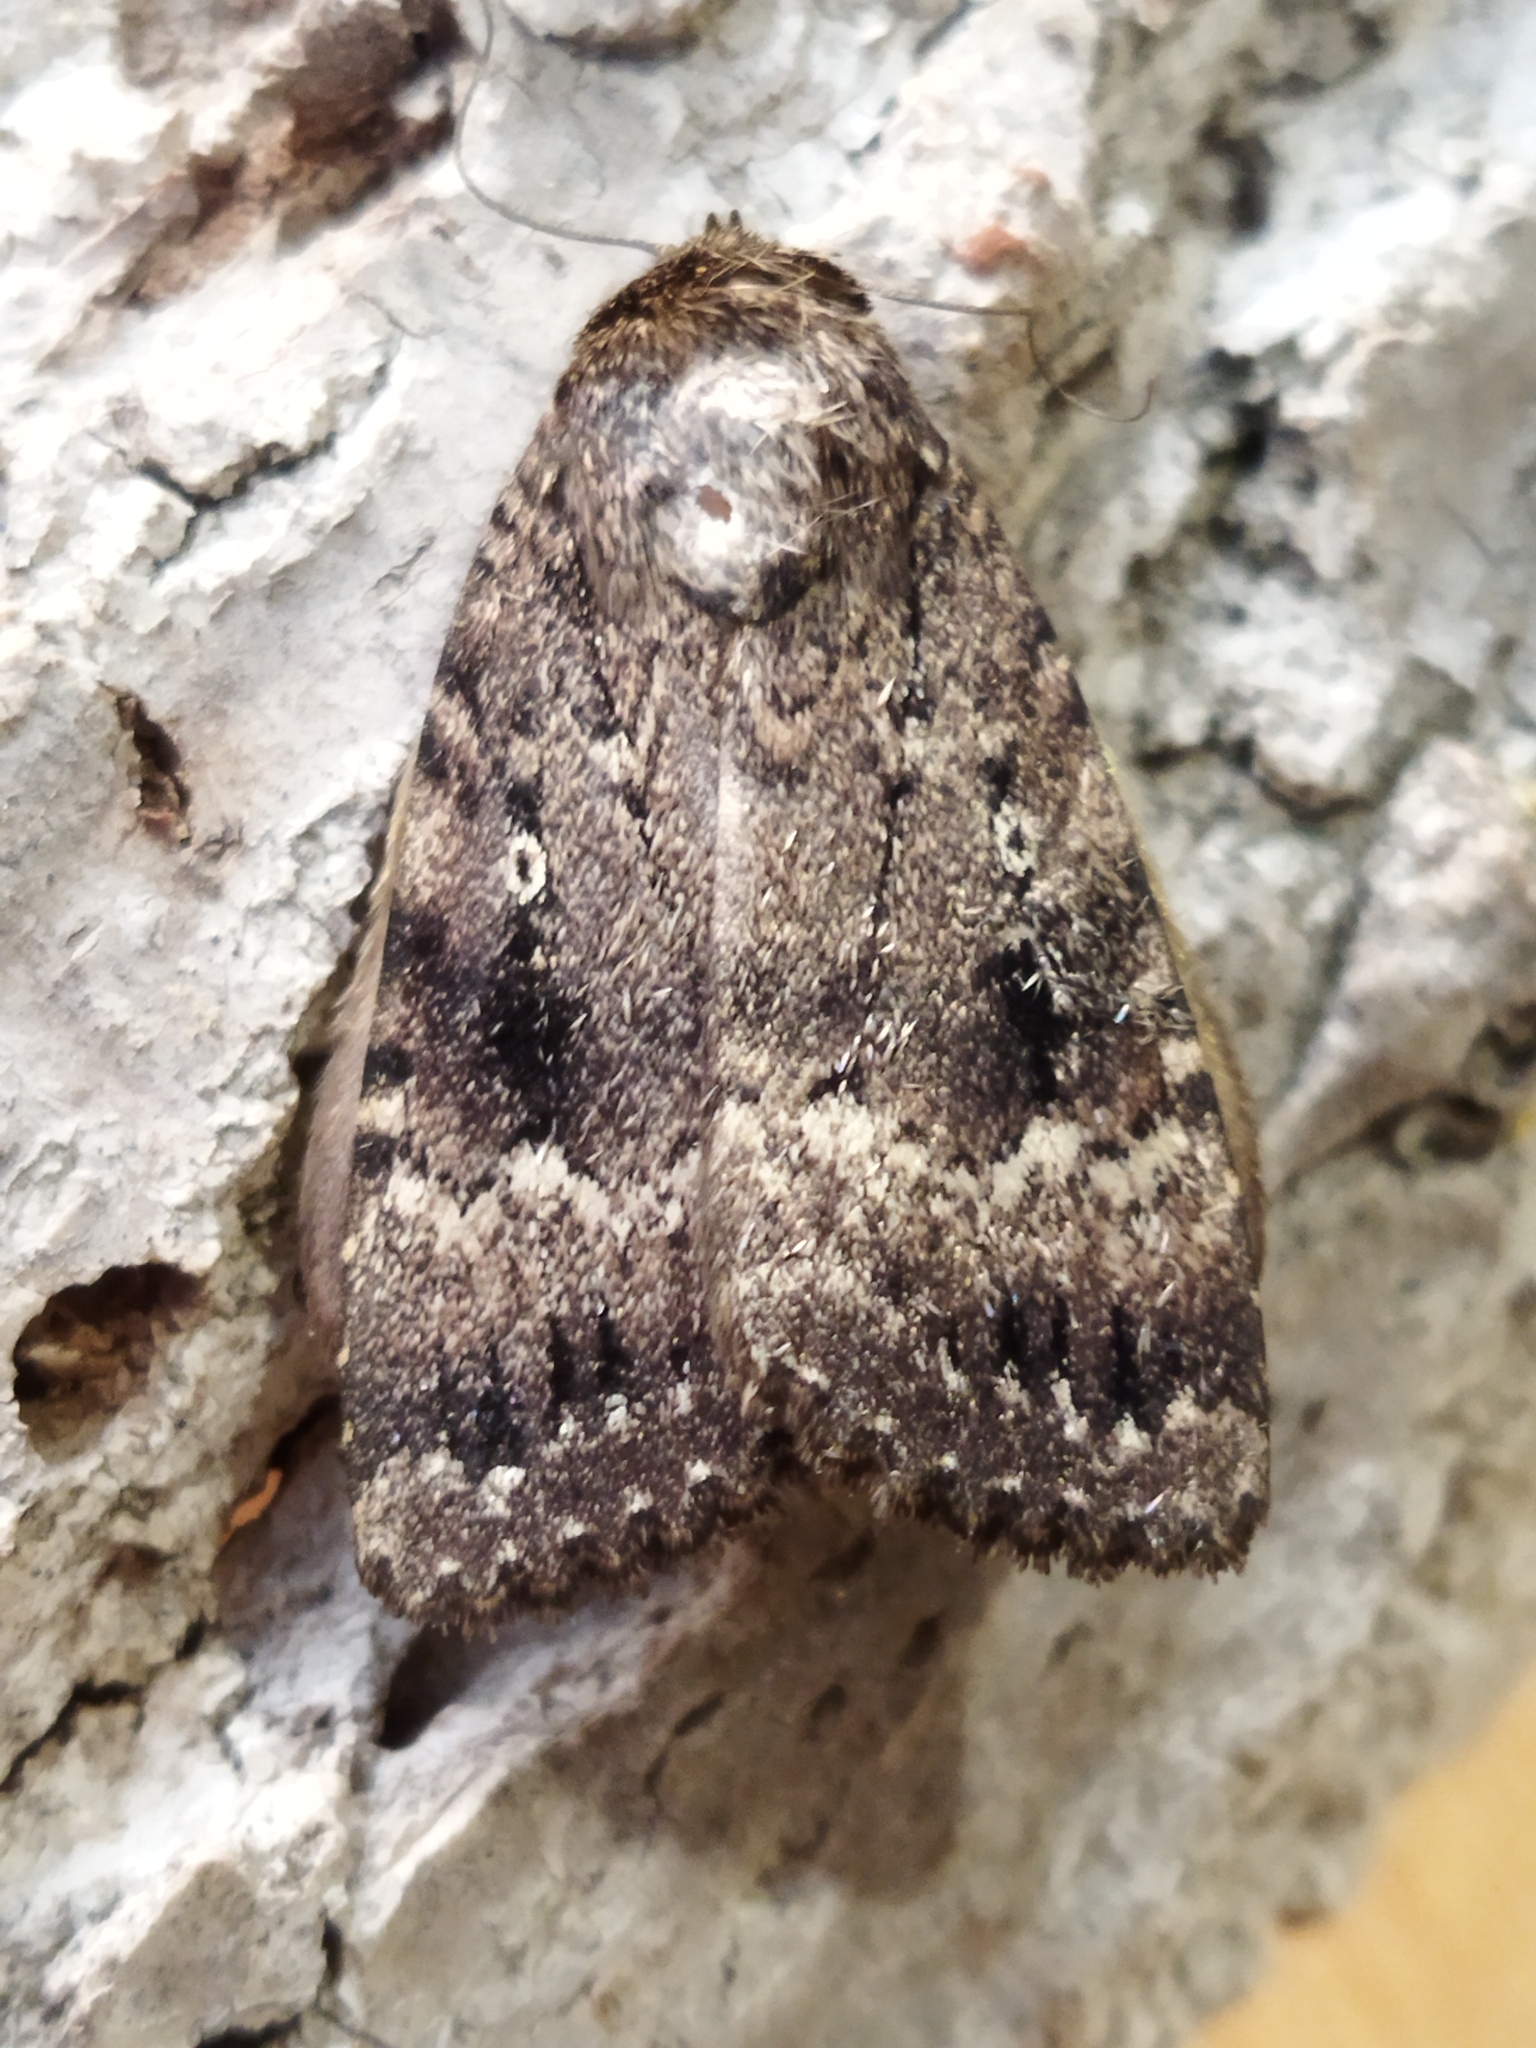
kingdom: Animalia
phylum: Arthropoda
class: Insecta
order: Lepidoptera
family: Noctuidae
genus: Amphipyra
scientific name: Amphipyra pyramidea
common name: Copper underwing
